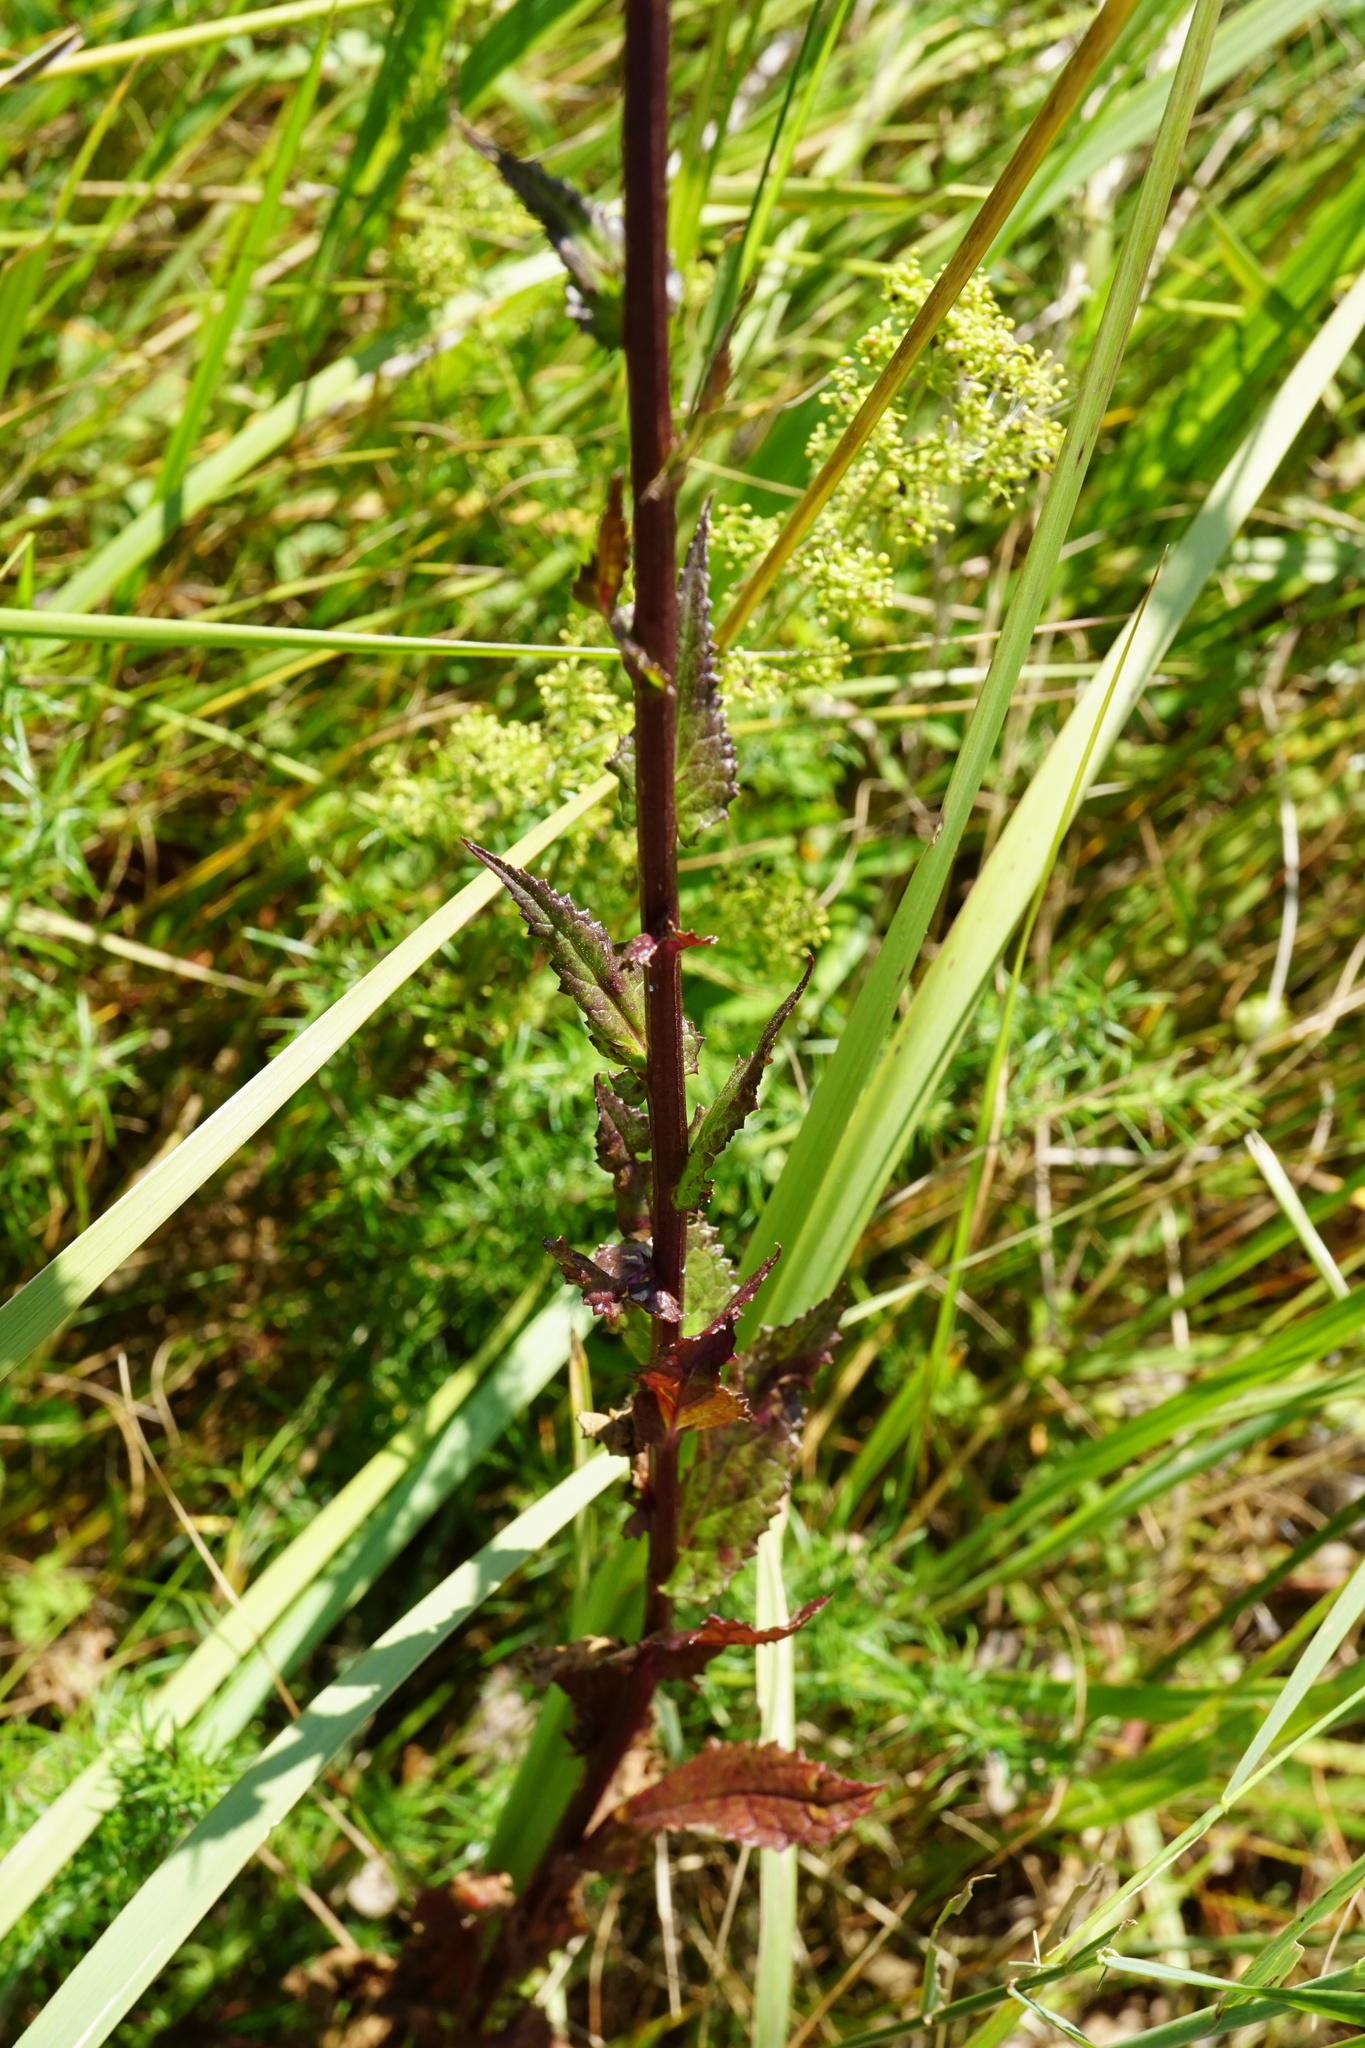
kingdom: Plantae
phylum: Tracheophyta
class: Magnoliopsida
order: Lamiales
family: Scrophulariaceae
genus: Verbascum
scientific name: Verbascum blattaria
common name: Moth mullein
